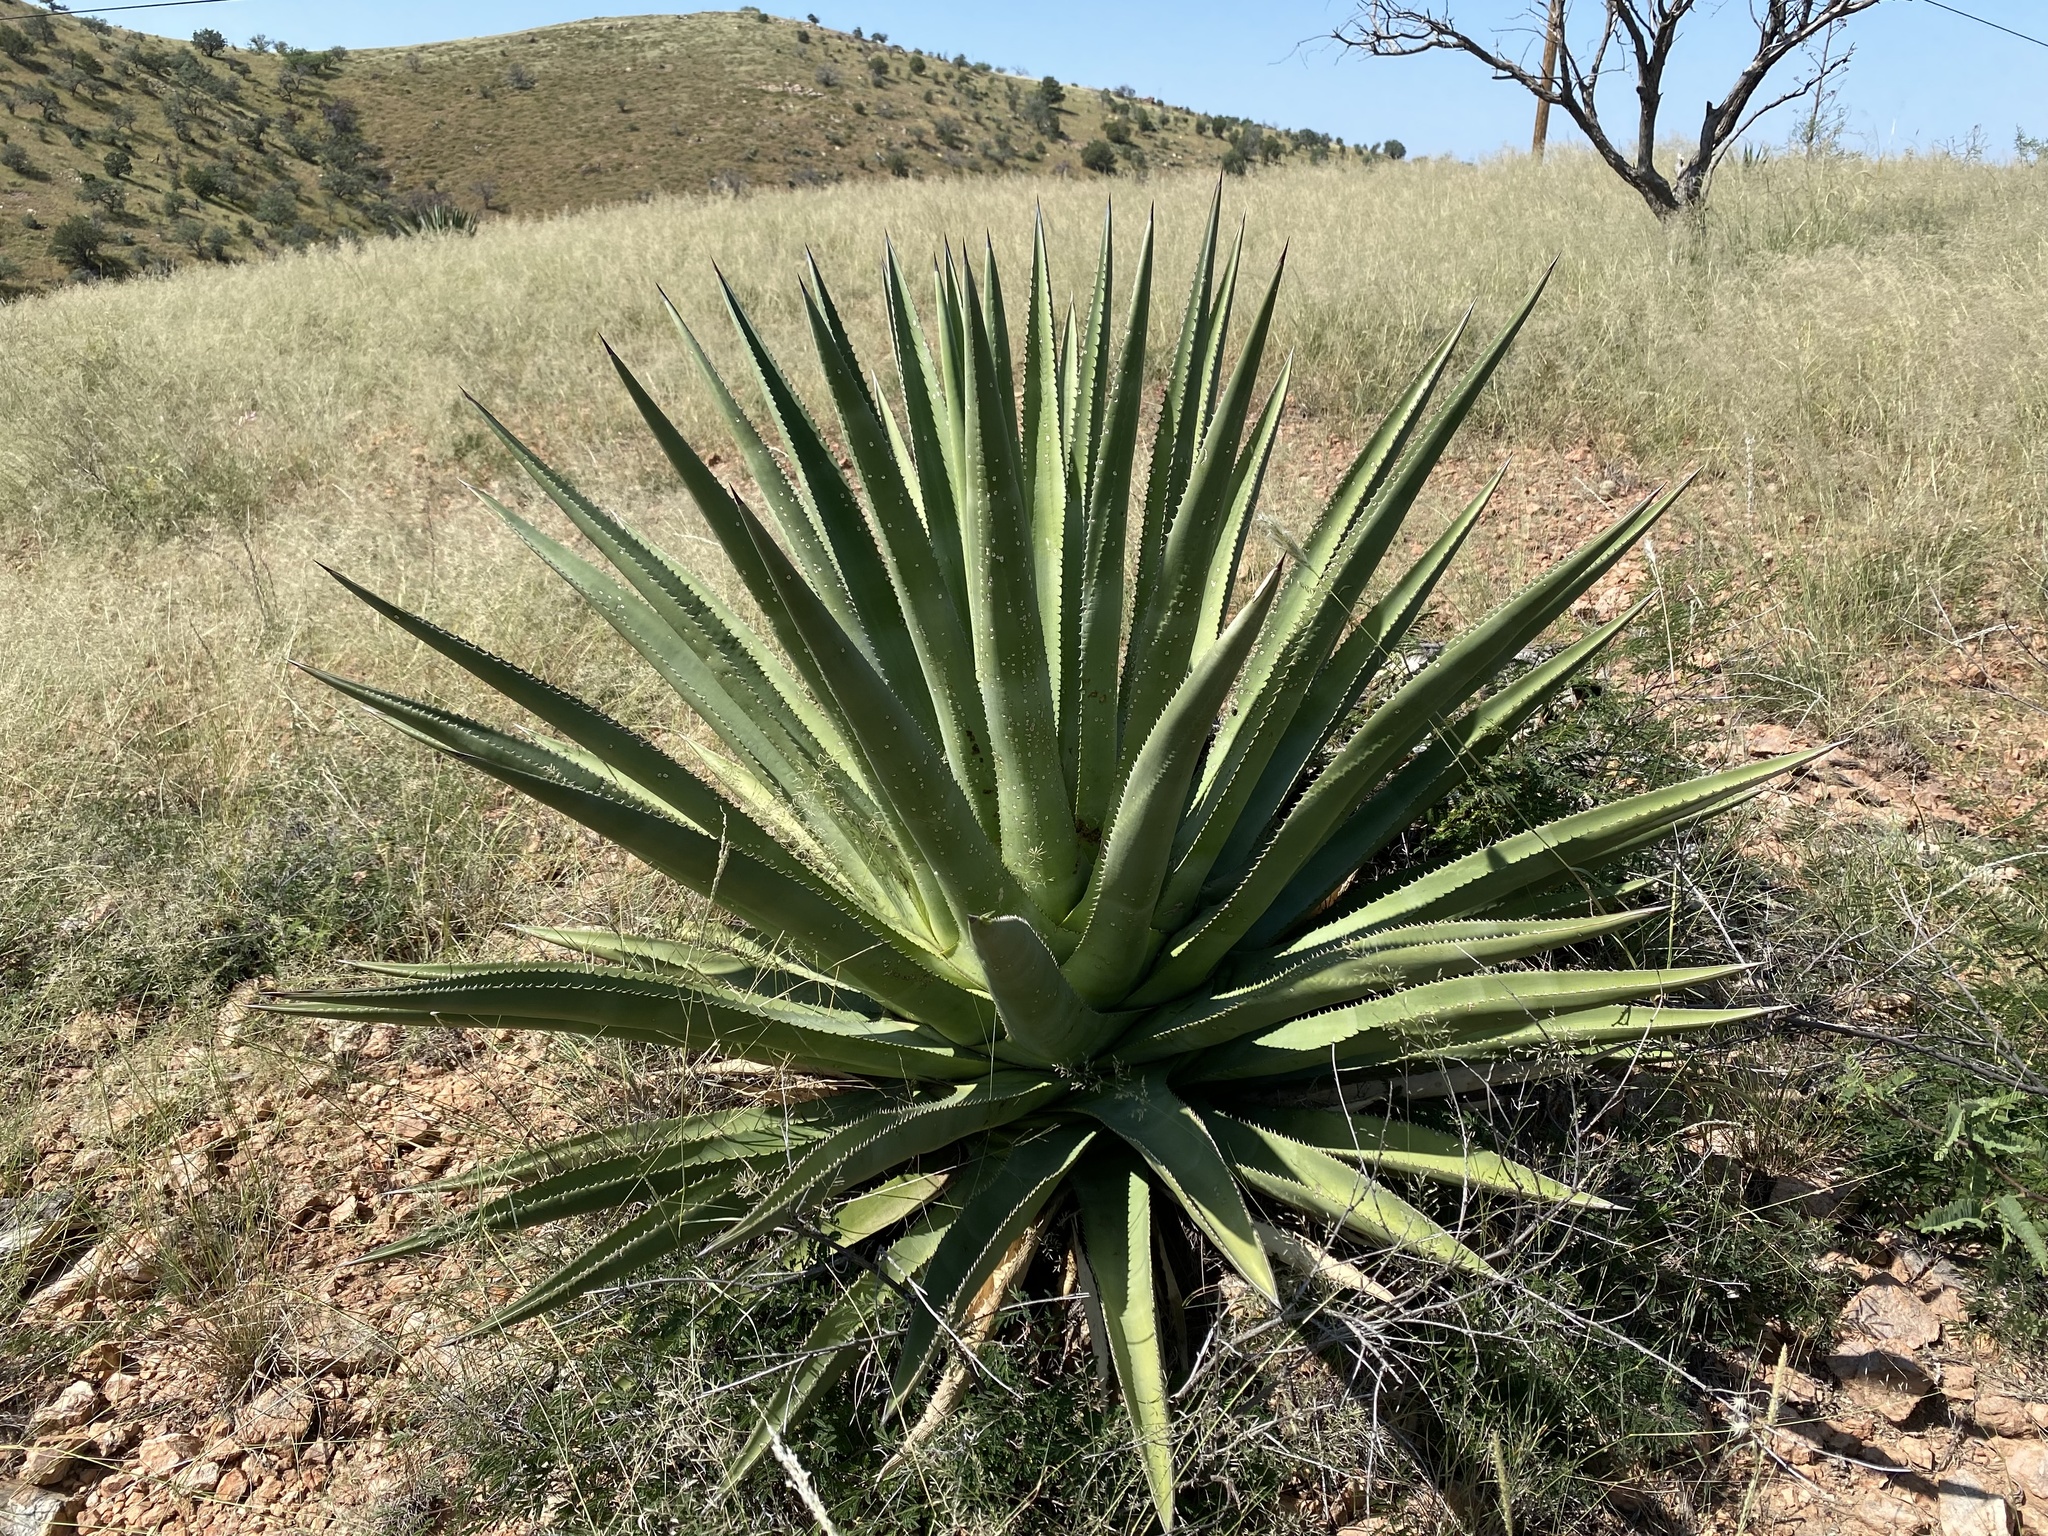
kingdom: Plantae
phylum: Tracheophyta
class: Liliopsida
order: Asparagales
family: Asparagaceae
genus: Agave
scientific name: Agave palmeri
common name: Palmer agave
